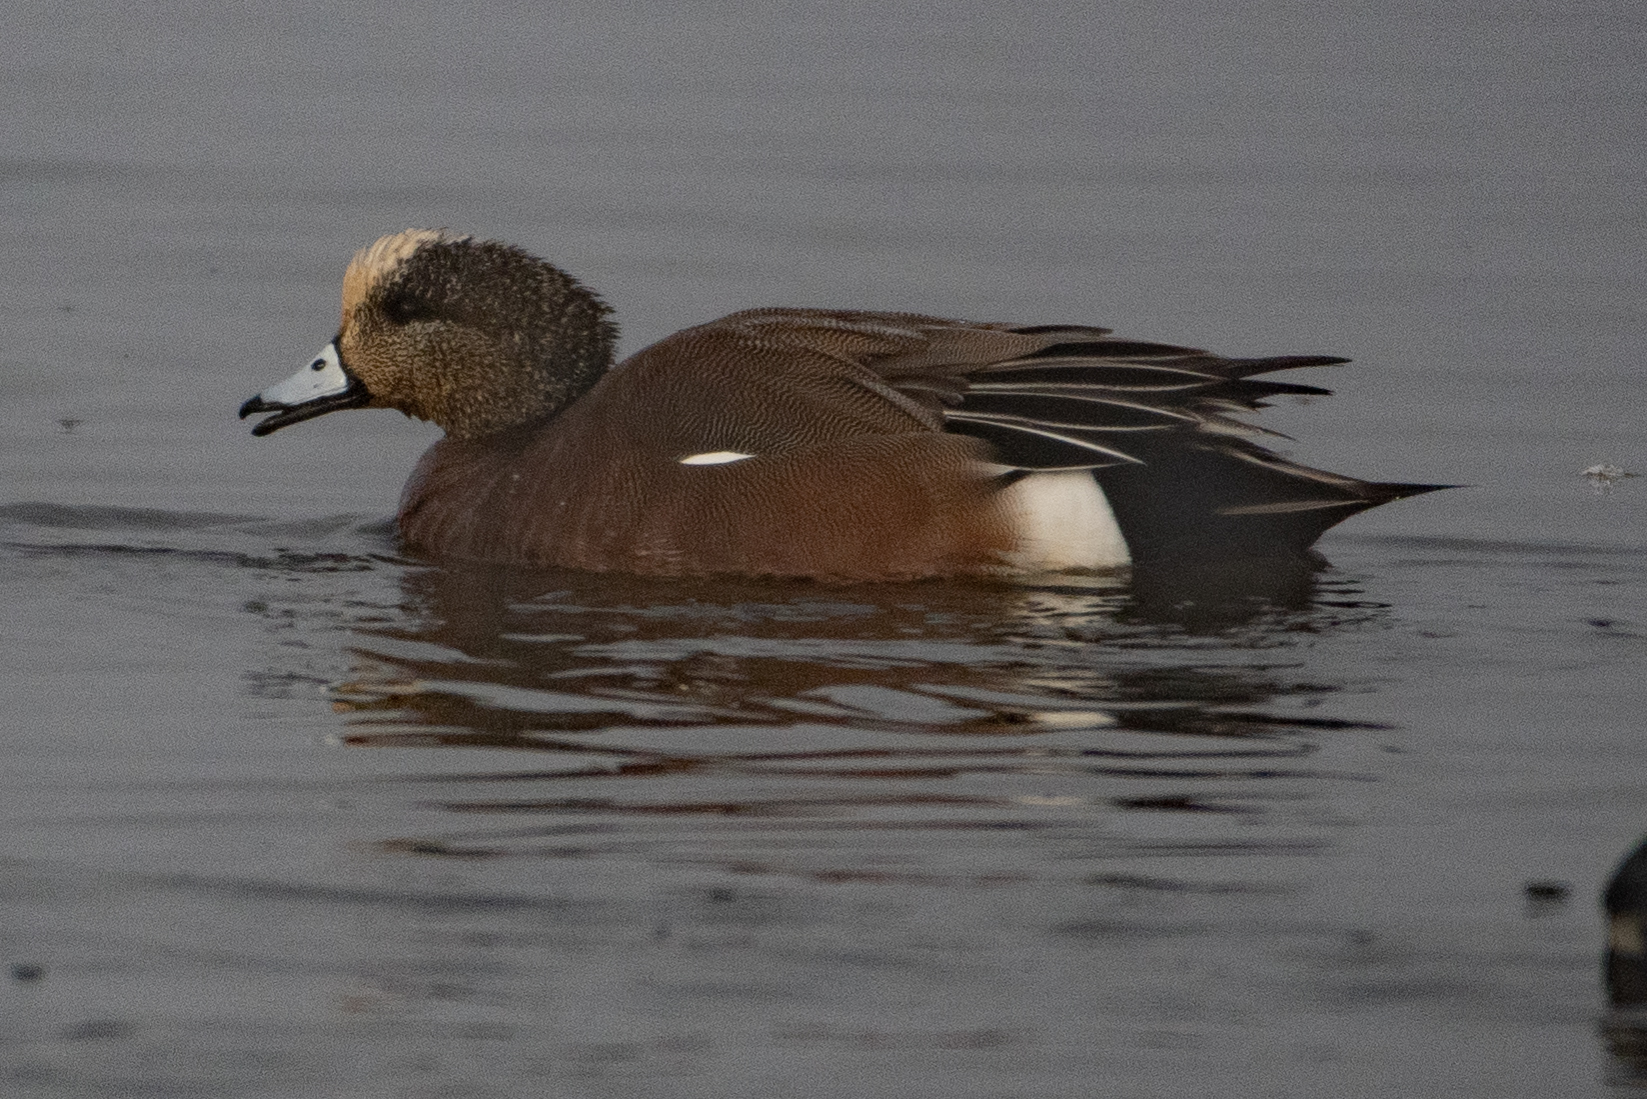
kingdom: Animalia
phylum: Chordata
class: Aves
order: Anseriformes
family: Anatidae
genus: Mareca
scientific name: Mareca americana
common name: American wigeon
